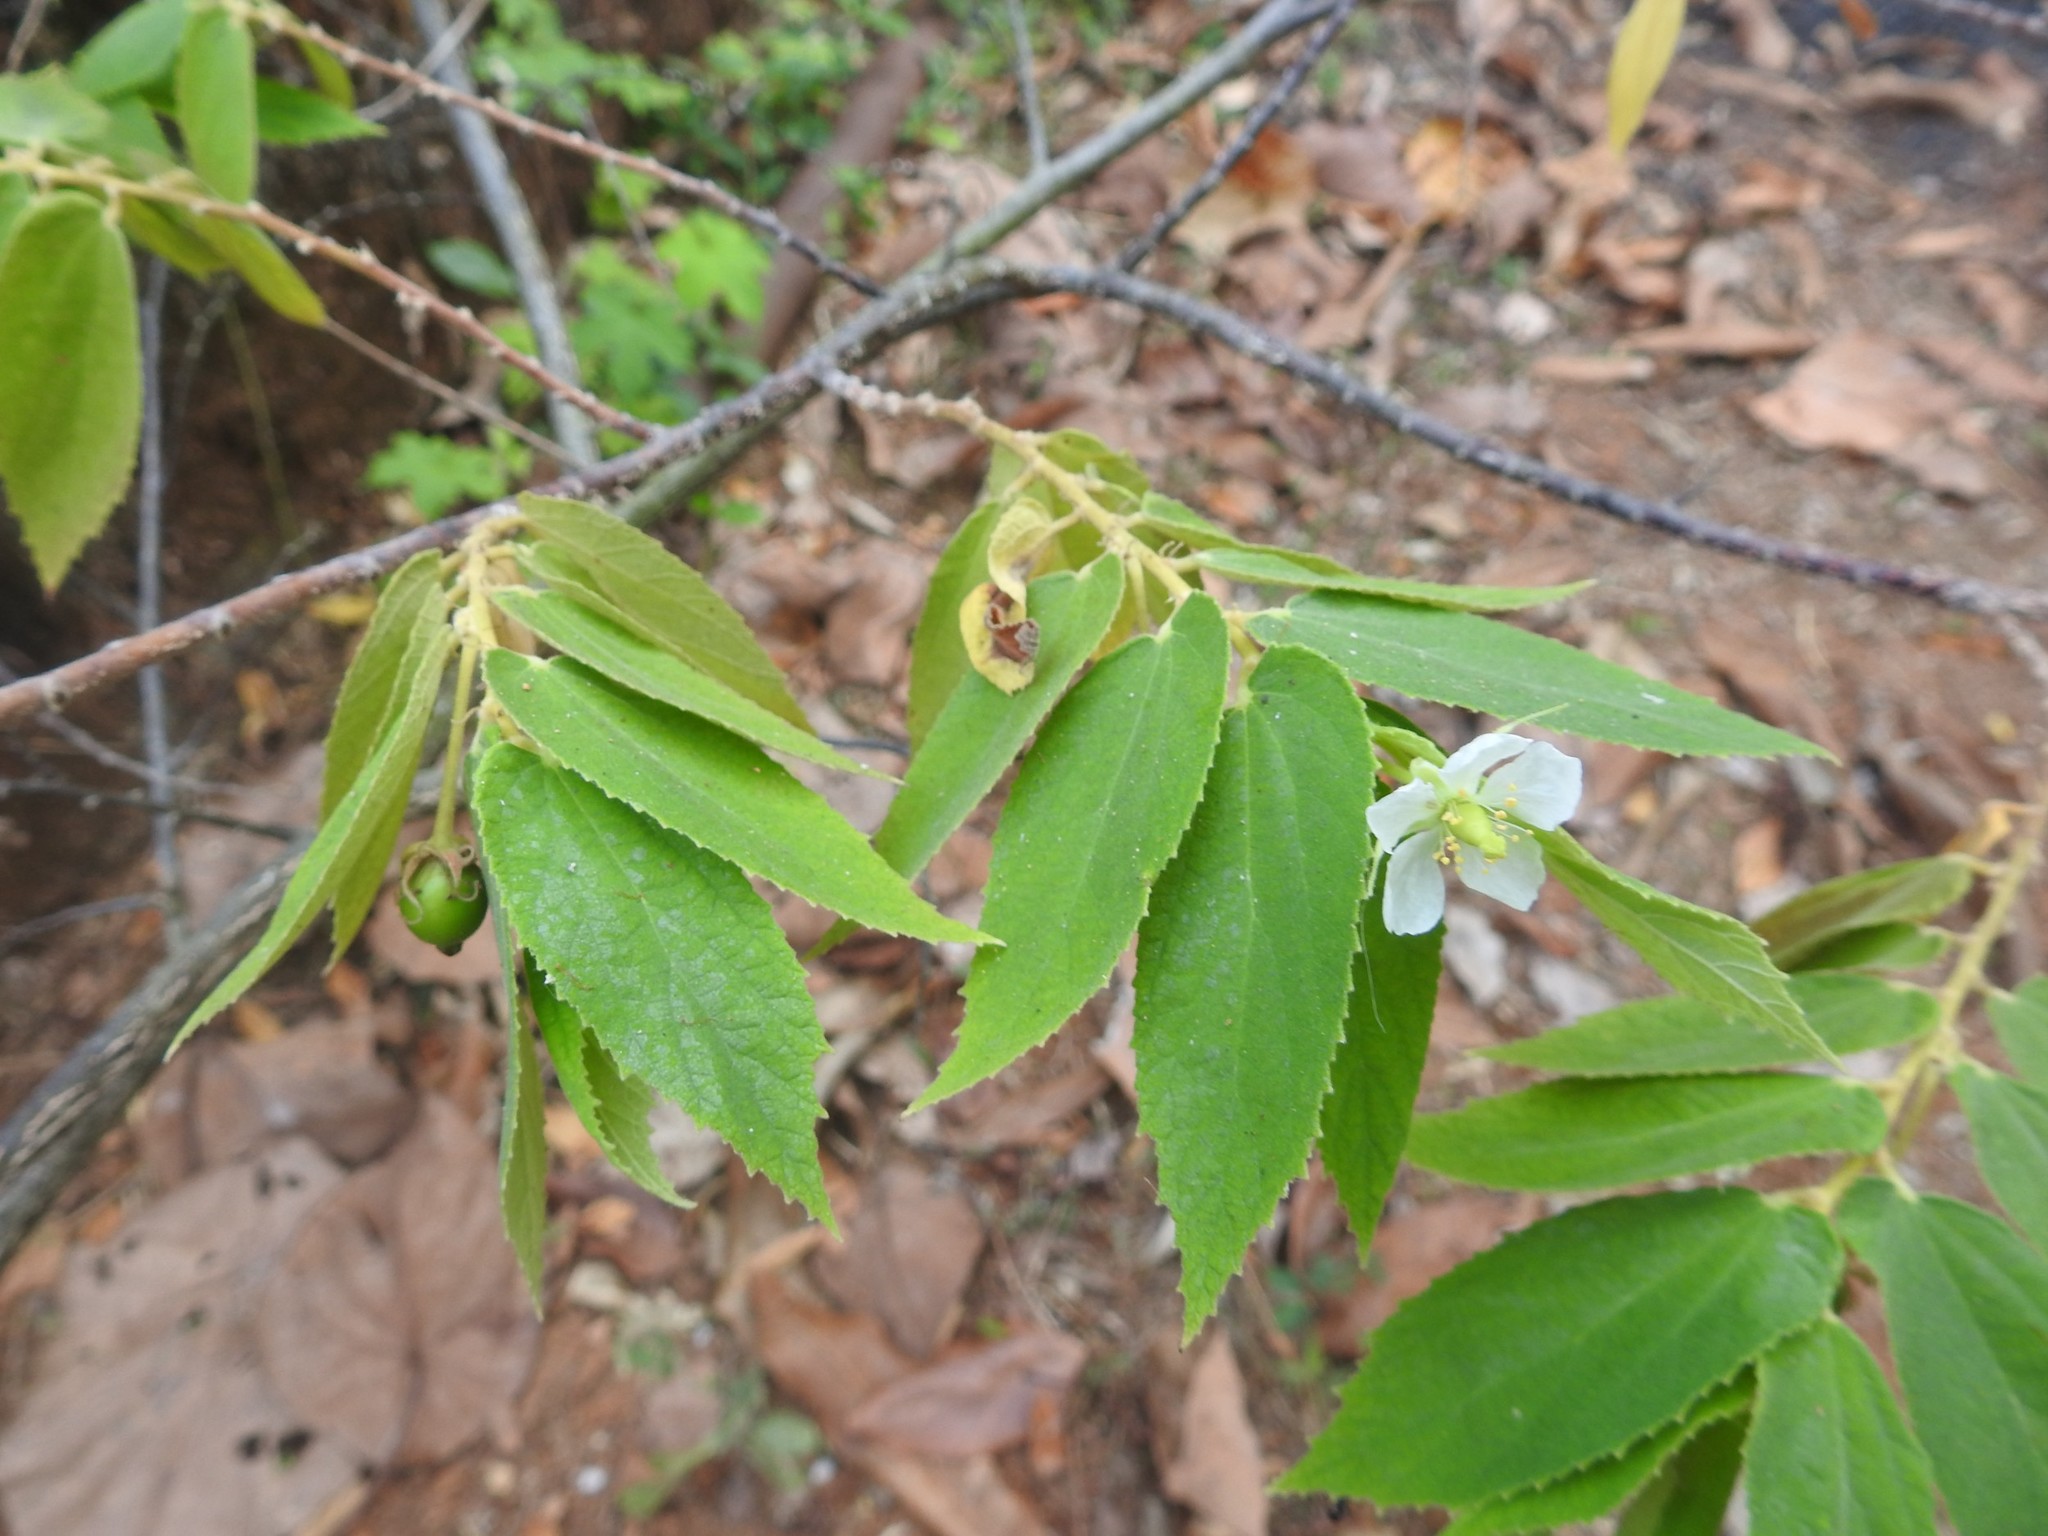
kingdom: Plantae
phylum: Tracheophyta
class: Magnoliopsida
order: Malvales
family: Muntingiaceae
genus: Muntingia
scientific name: Muntingia calabura
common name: Strawberrytree
